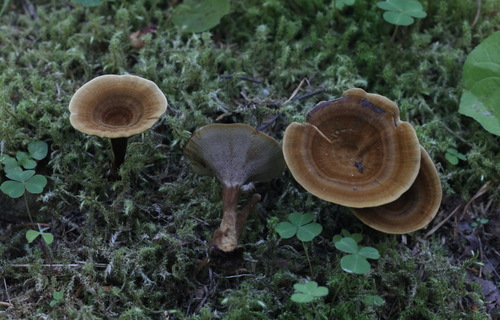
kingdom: Fungi
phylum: Basidiomycota
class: Agaricomycetes
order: Hymenochaetales
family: Hymenochaetaceae
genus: Coltricia
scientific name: Coltricia perennis
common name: Tiger's eye
